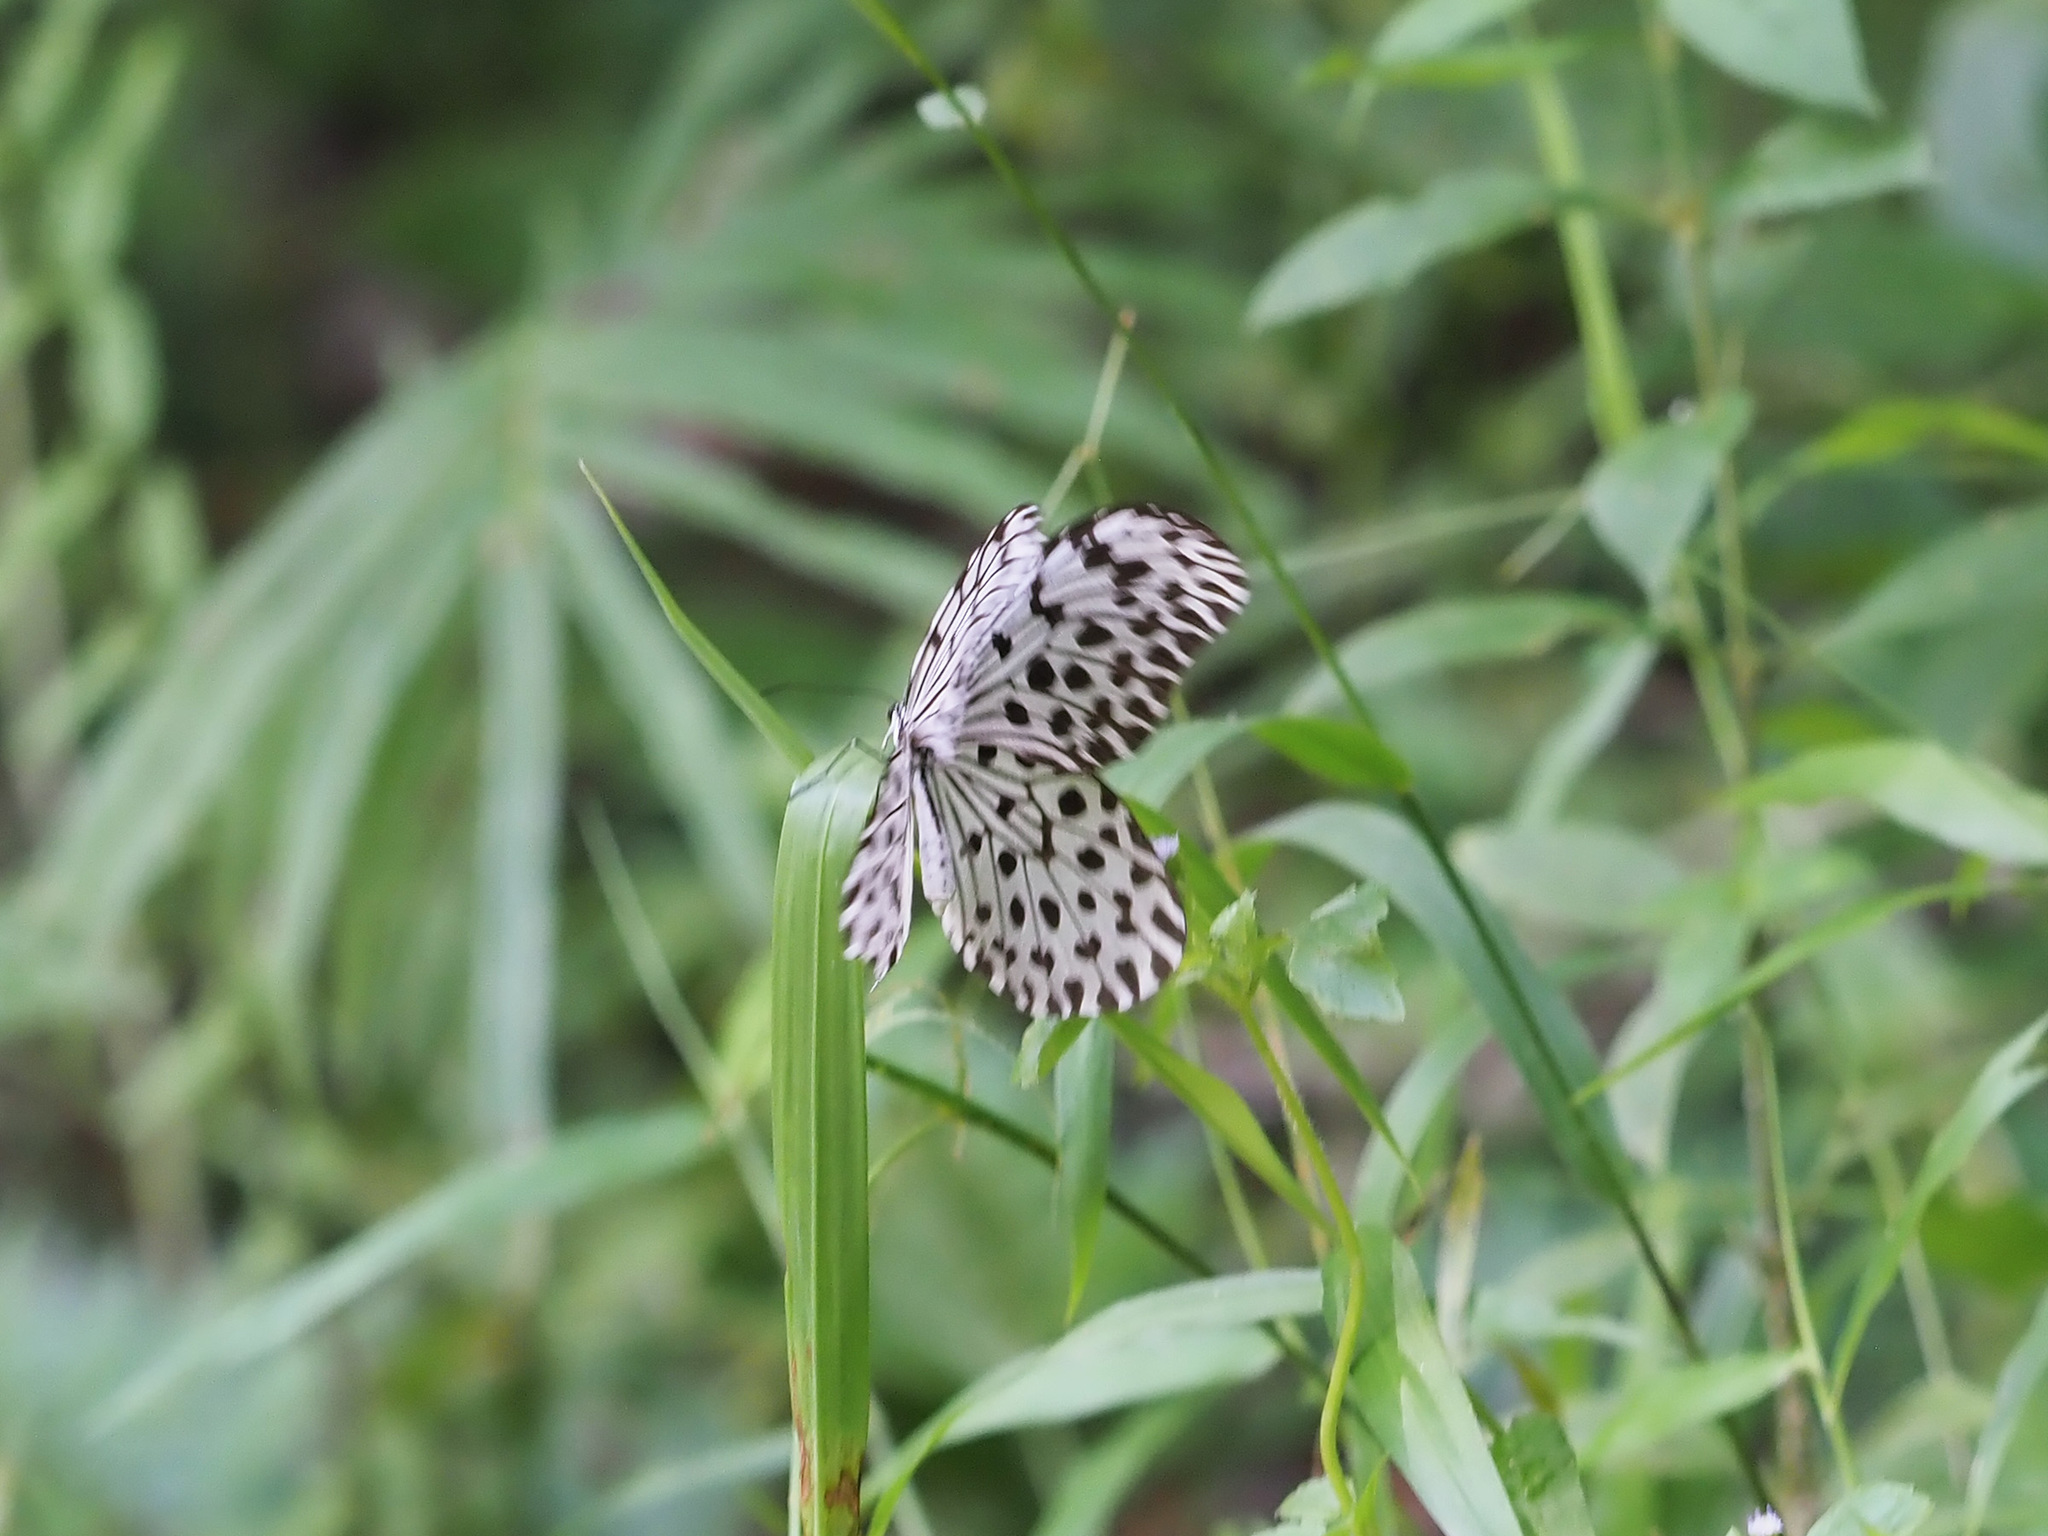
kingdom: Animalia
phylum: Arthropoda
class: Insecta
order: Lepidoptera
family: Nymphalidae
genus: Idea
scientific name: Idea stolli
